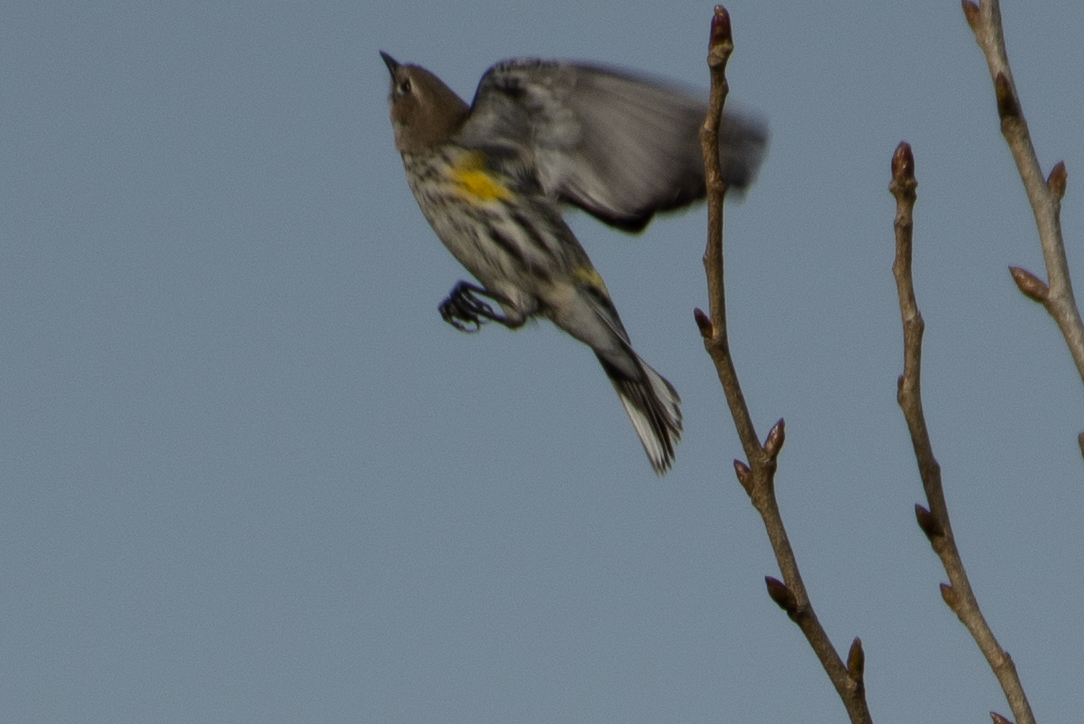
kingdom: Animalia
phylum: Chordata
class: Aves
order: Passeriformes
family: Parulidae
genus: Setophaga
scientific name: Setophaga coronata
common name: Myrtle warbler
